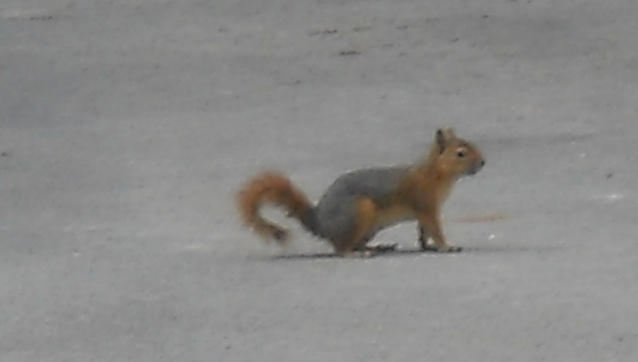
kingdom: Animalia
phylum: Chordata
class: Mammalia
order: Rodentia
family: Sciuridae
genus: Sciurus
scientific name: Sciurus anomalus
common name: Caucasian squirrel
